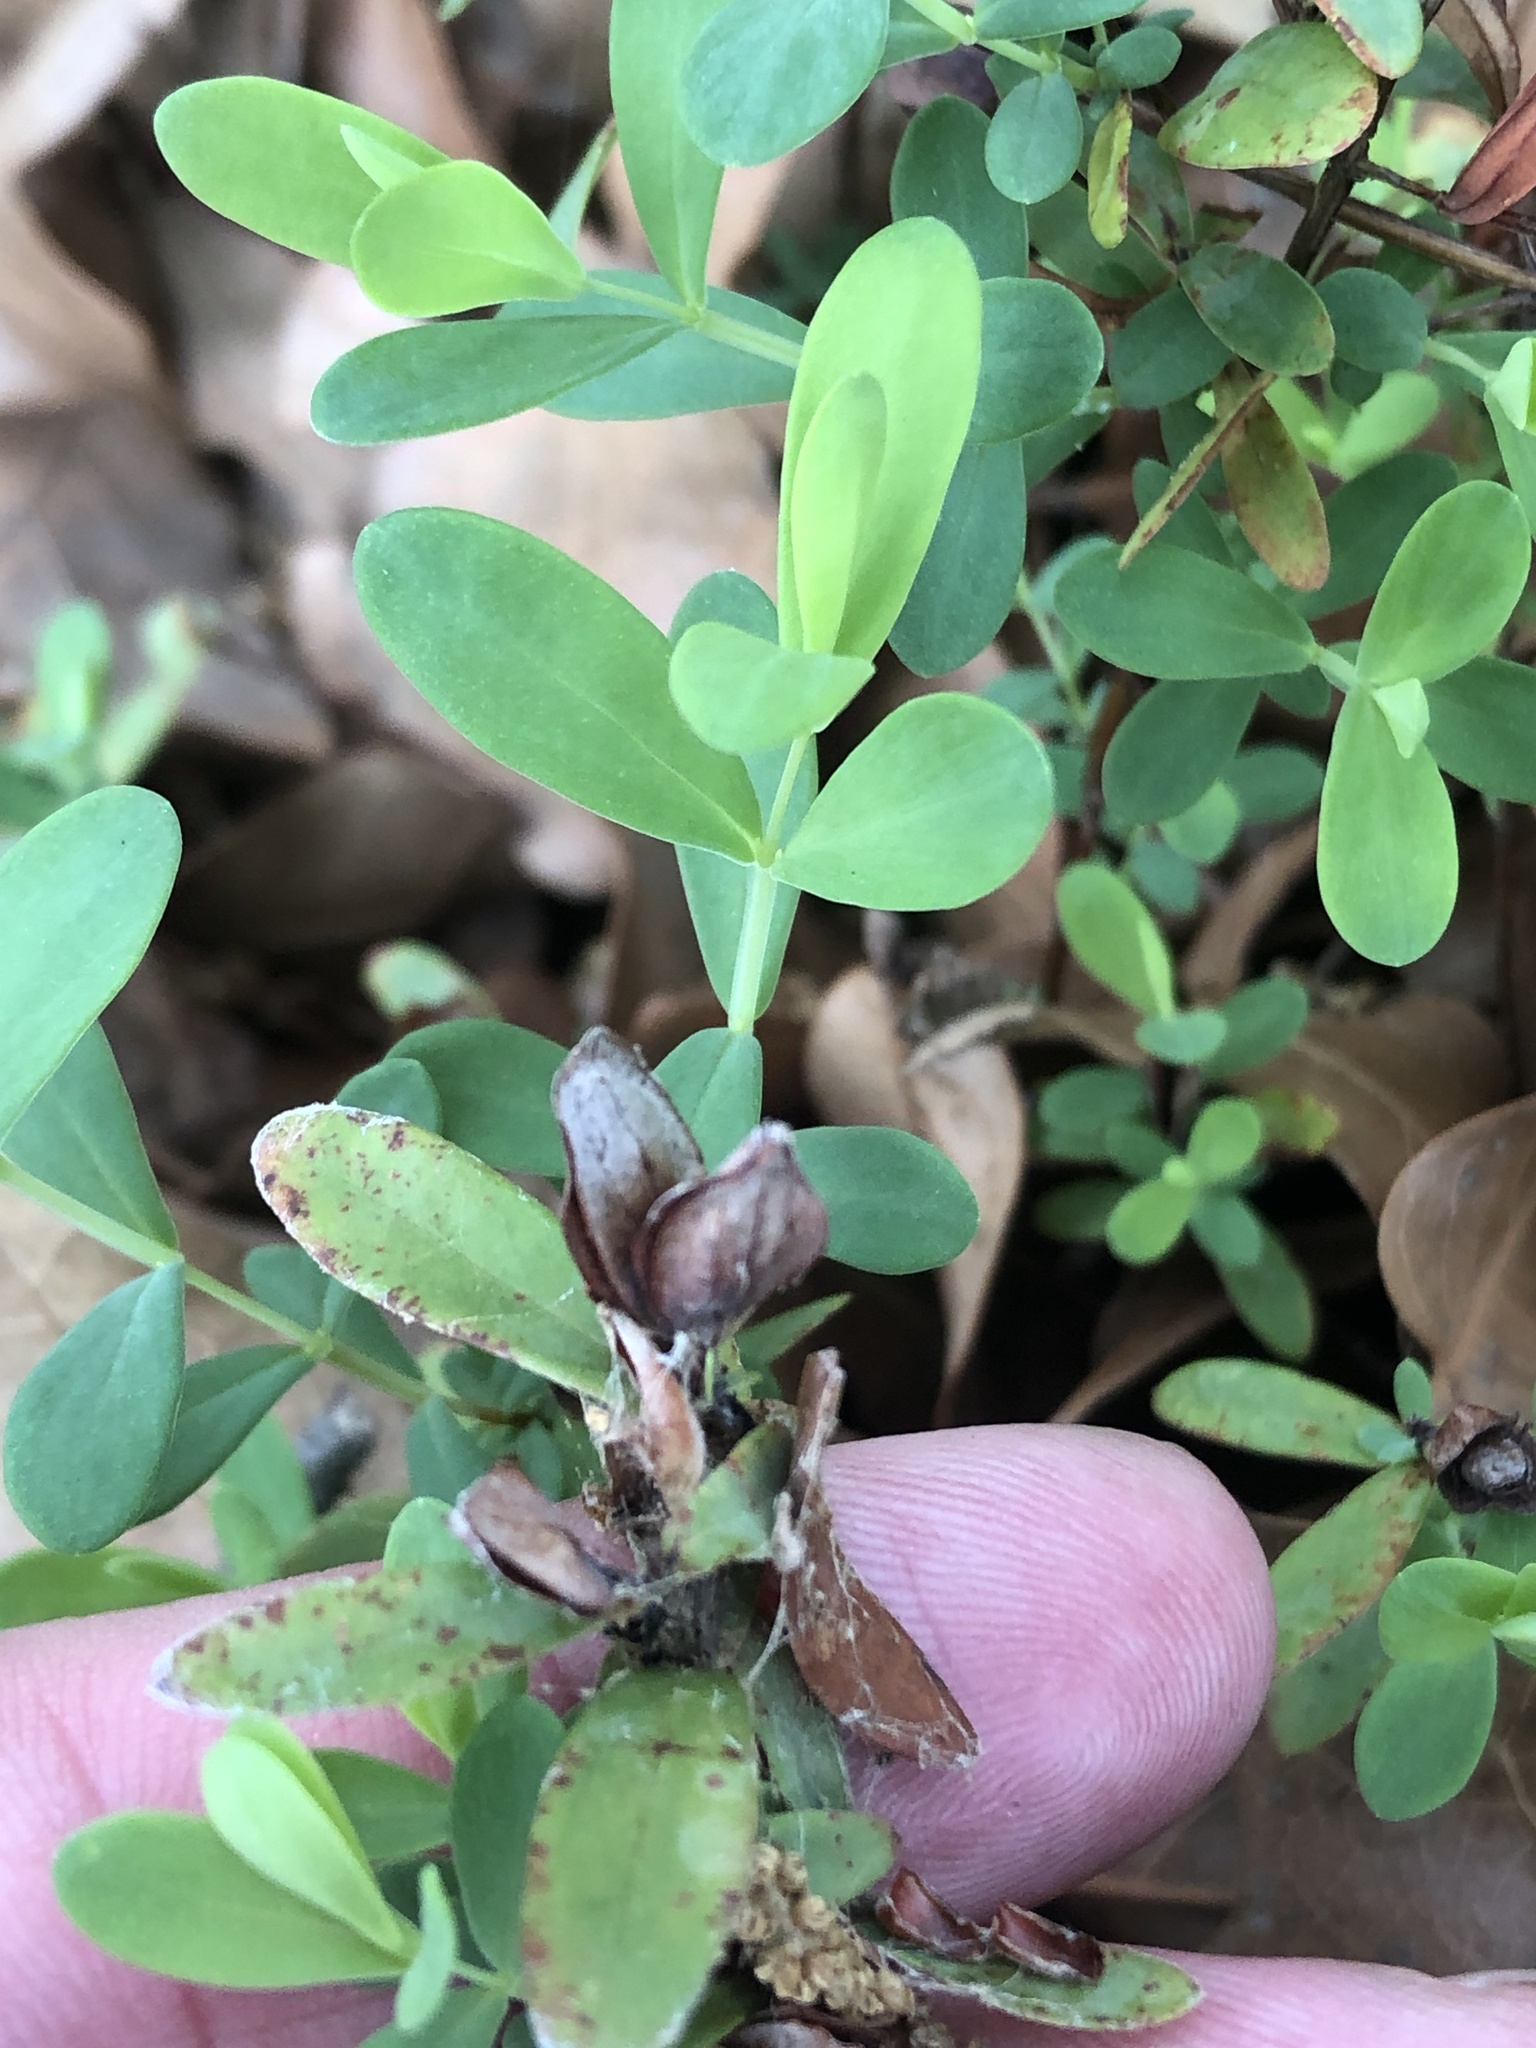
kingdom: Plantae
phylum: Tracheophyta
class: Magnoliopsida
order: Malpighiales
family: Hypericaceae
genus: Hypericum
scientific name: Hypericum hypericoides
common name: St. andrew's cross
